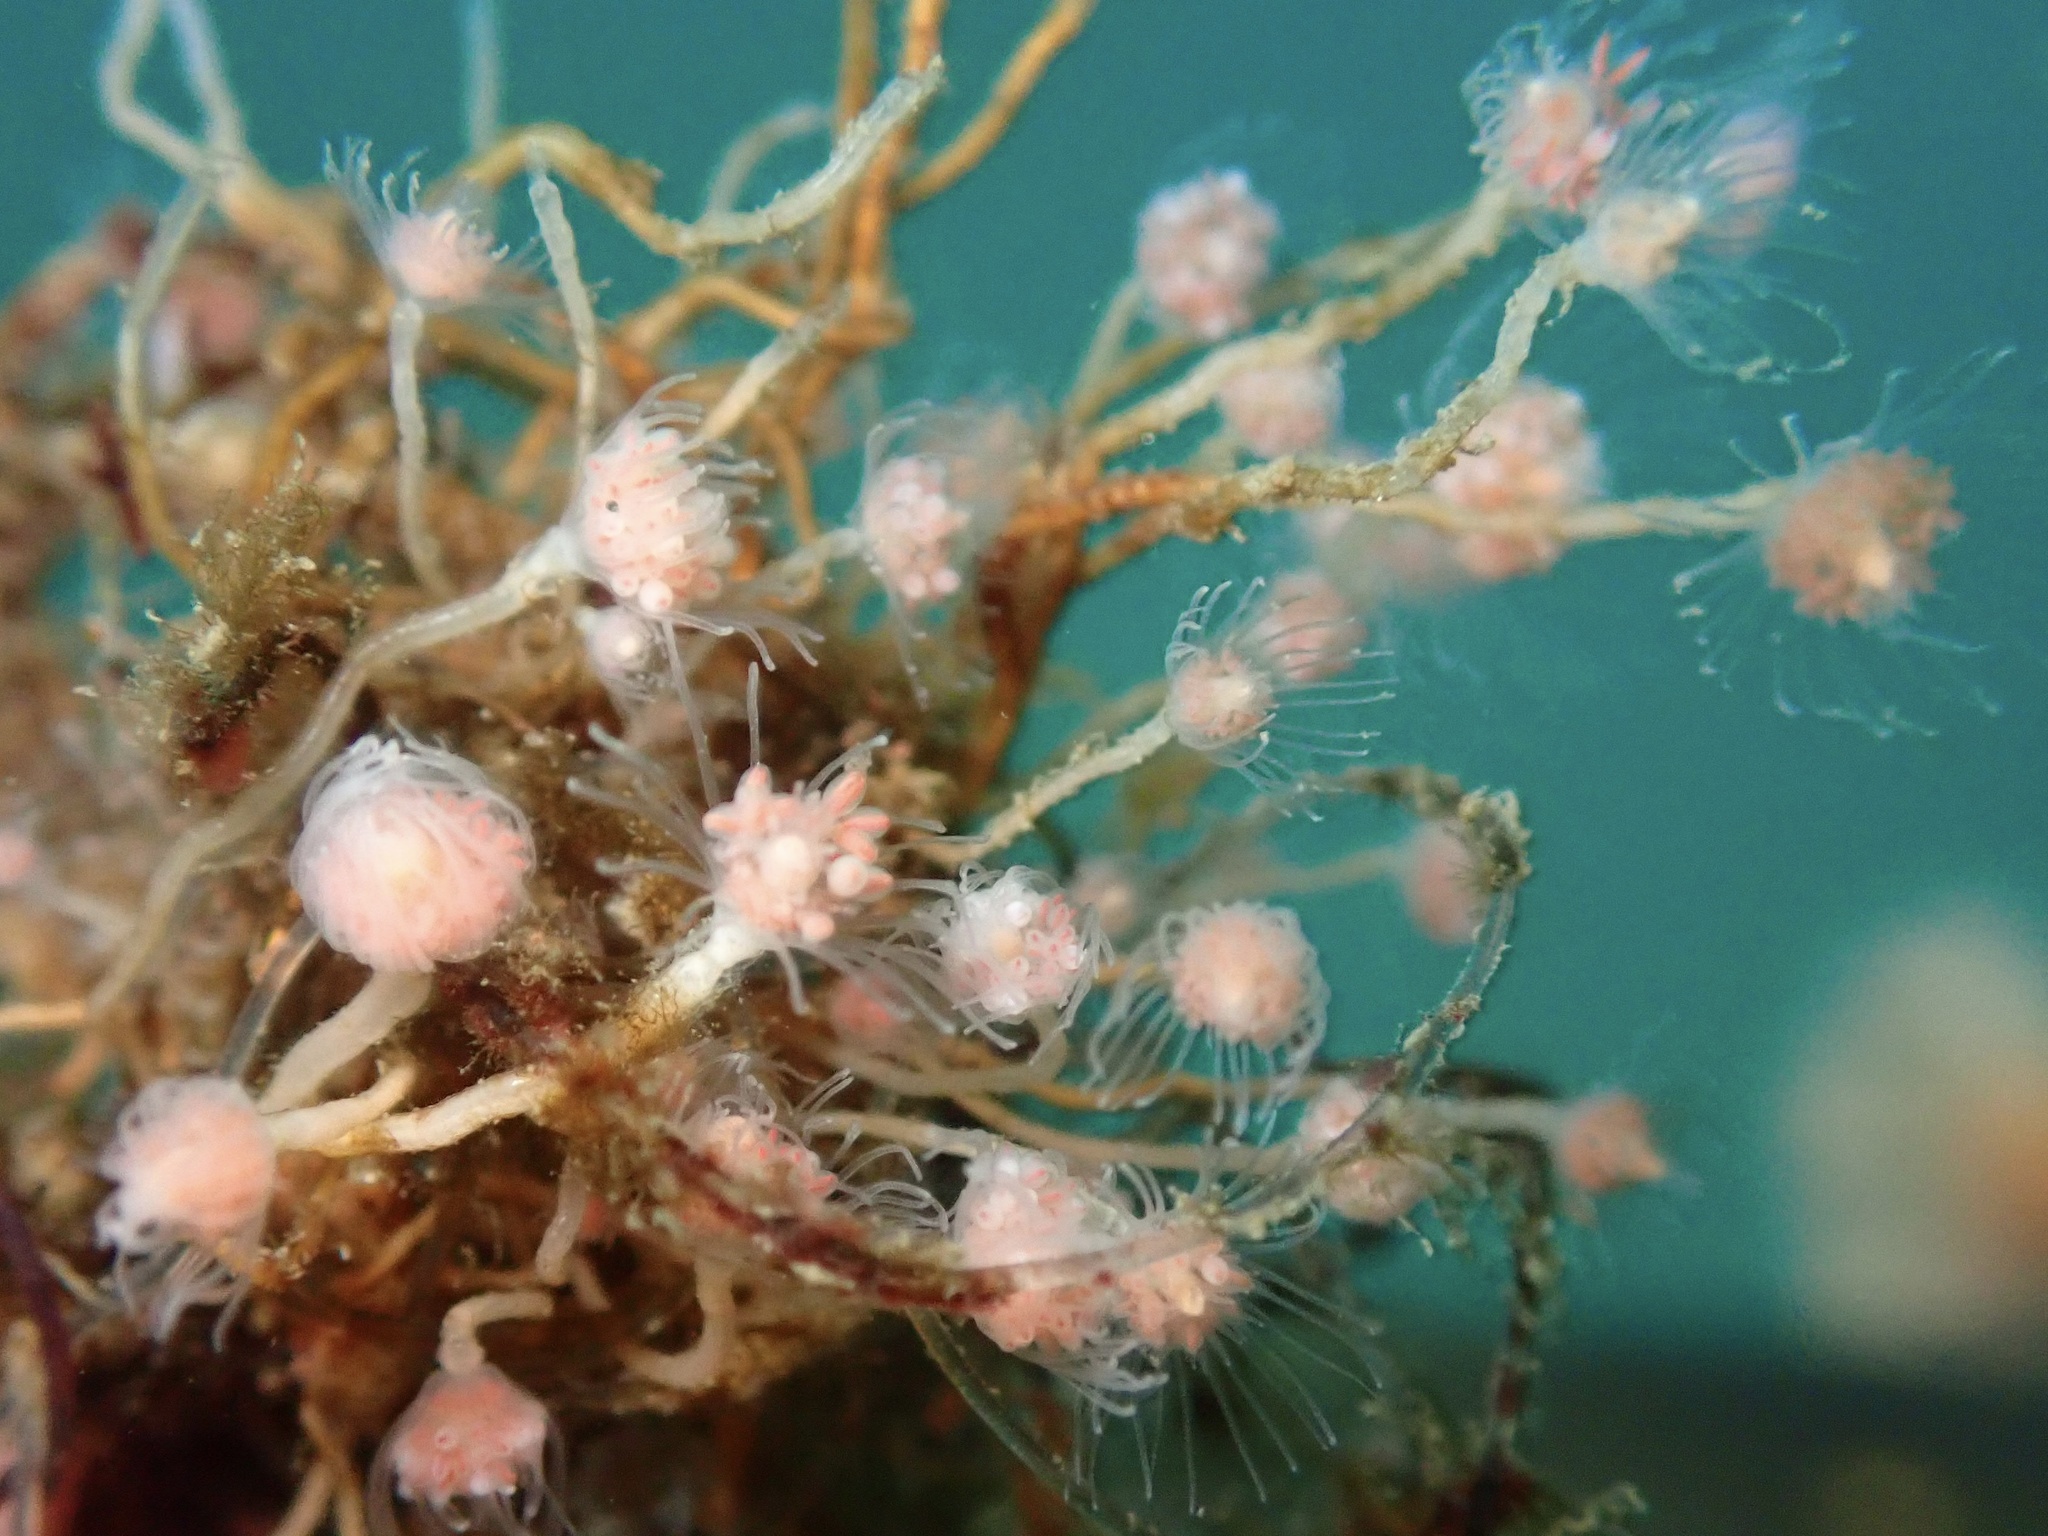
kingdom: Animalia
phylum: Cnidaria
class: Hydrozoa
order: Anthoathecata
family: Tubulariidae
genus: Ectopleura
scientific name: Ectopleura marina
